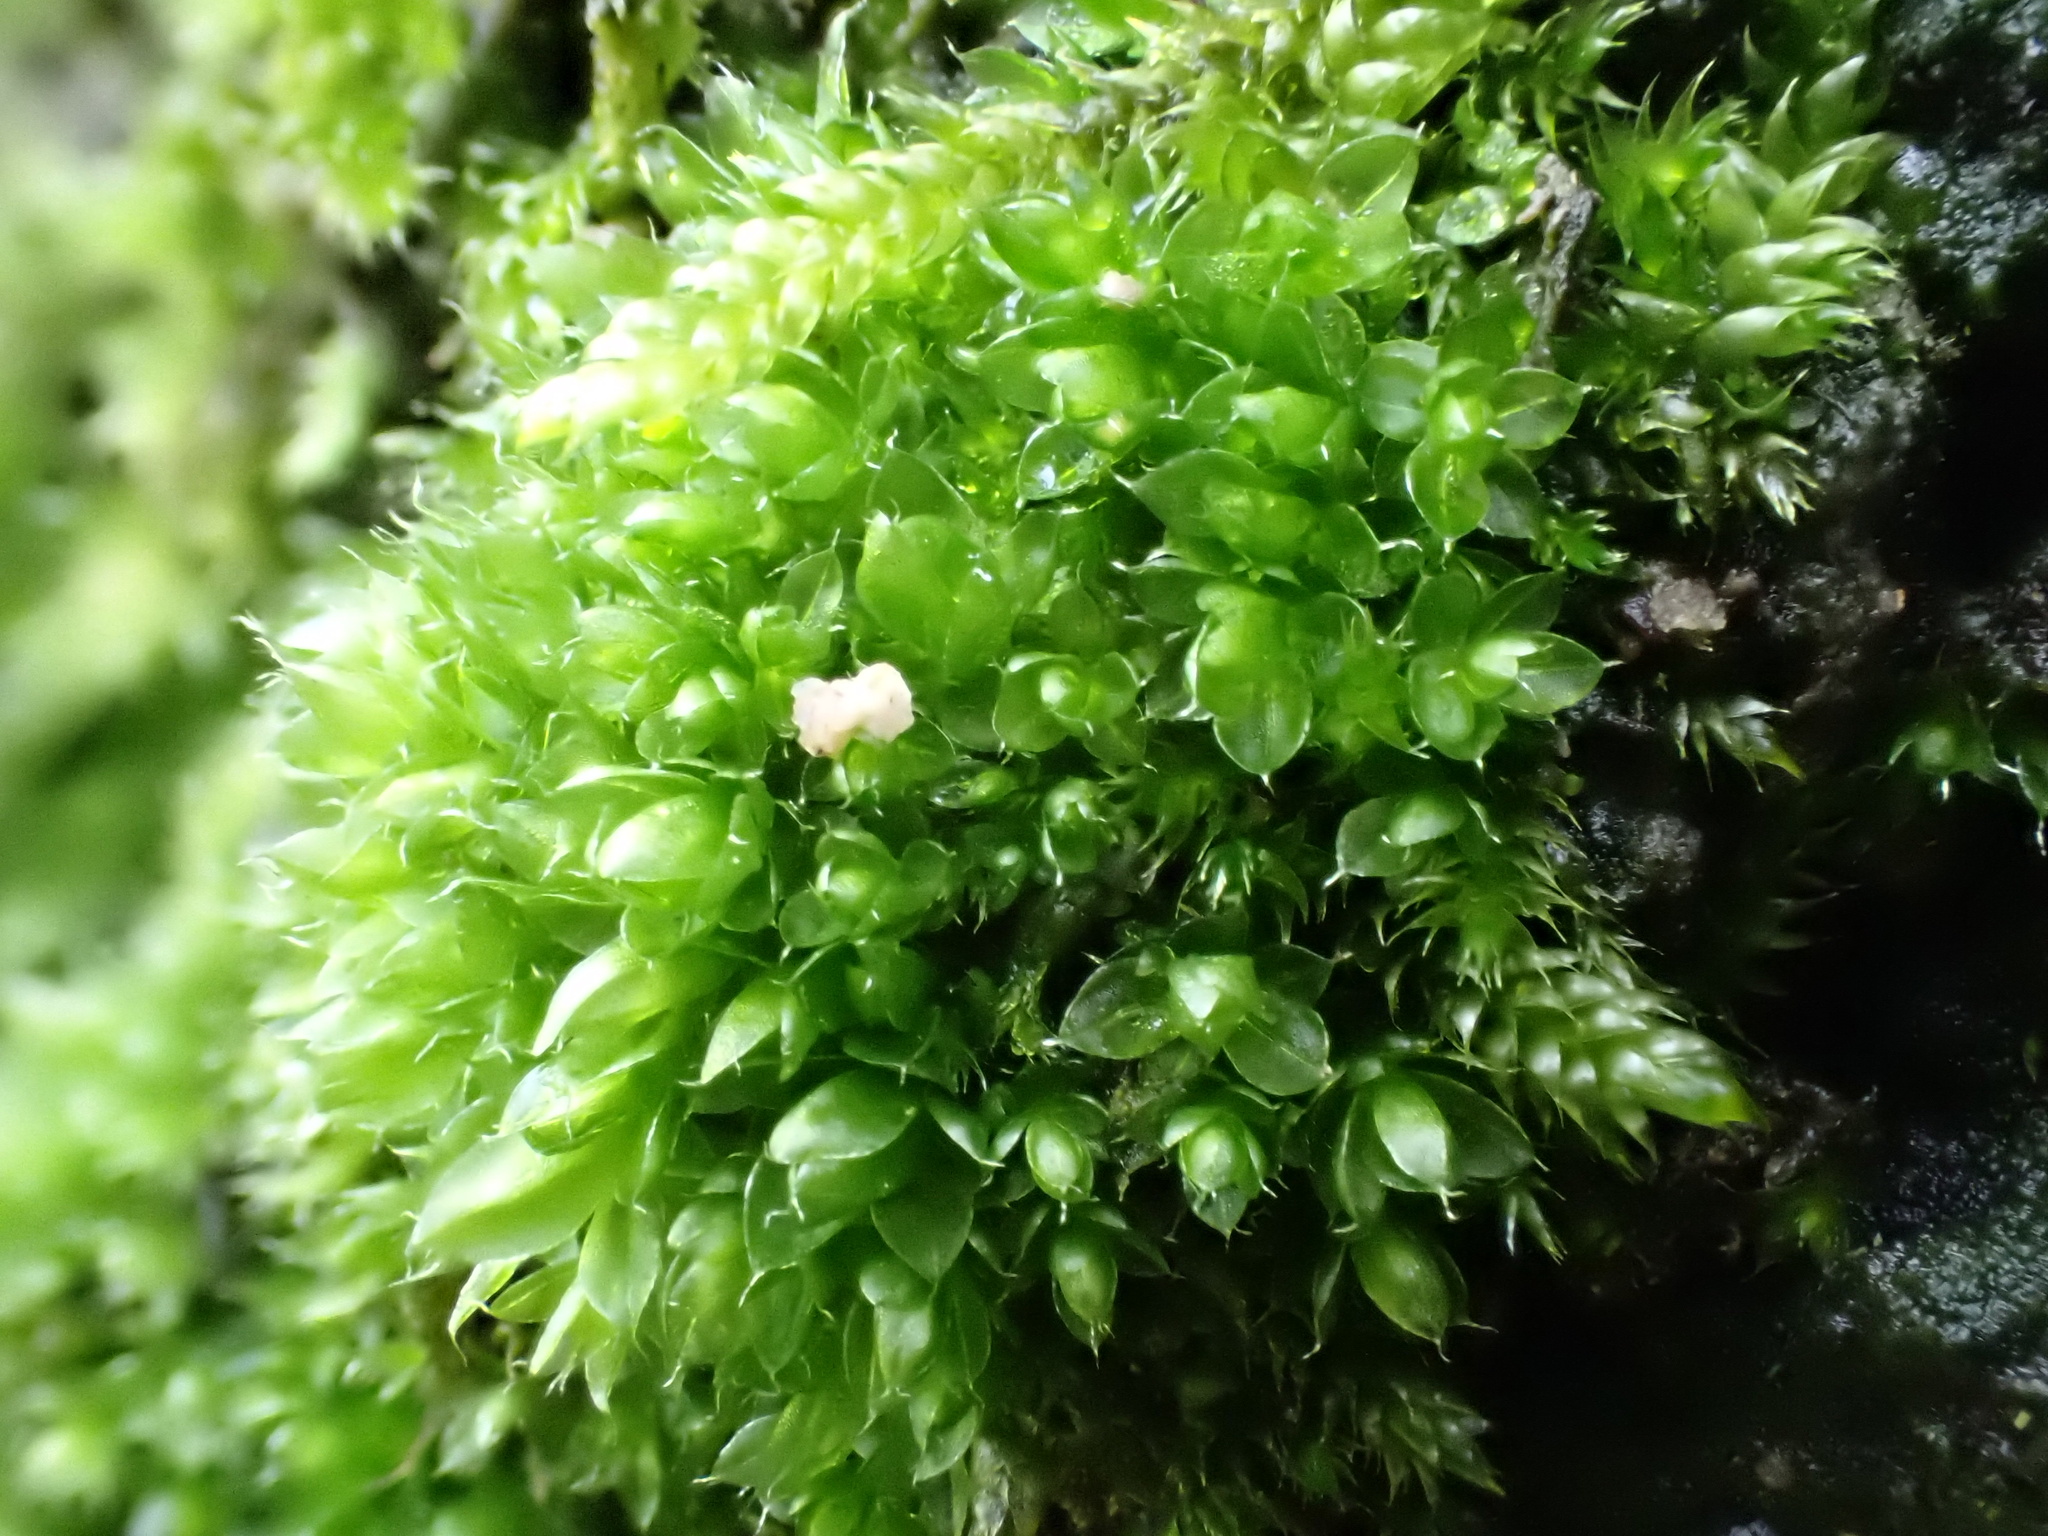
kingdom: Plantae
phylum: Bryophyta
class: Bryopsida
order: Bryales
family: Bryaceae
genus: Rosulabryum
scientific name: Rosulabryum capillare
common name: Capillary thread-moss
